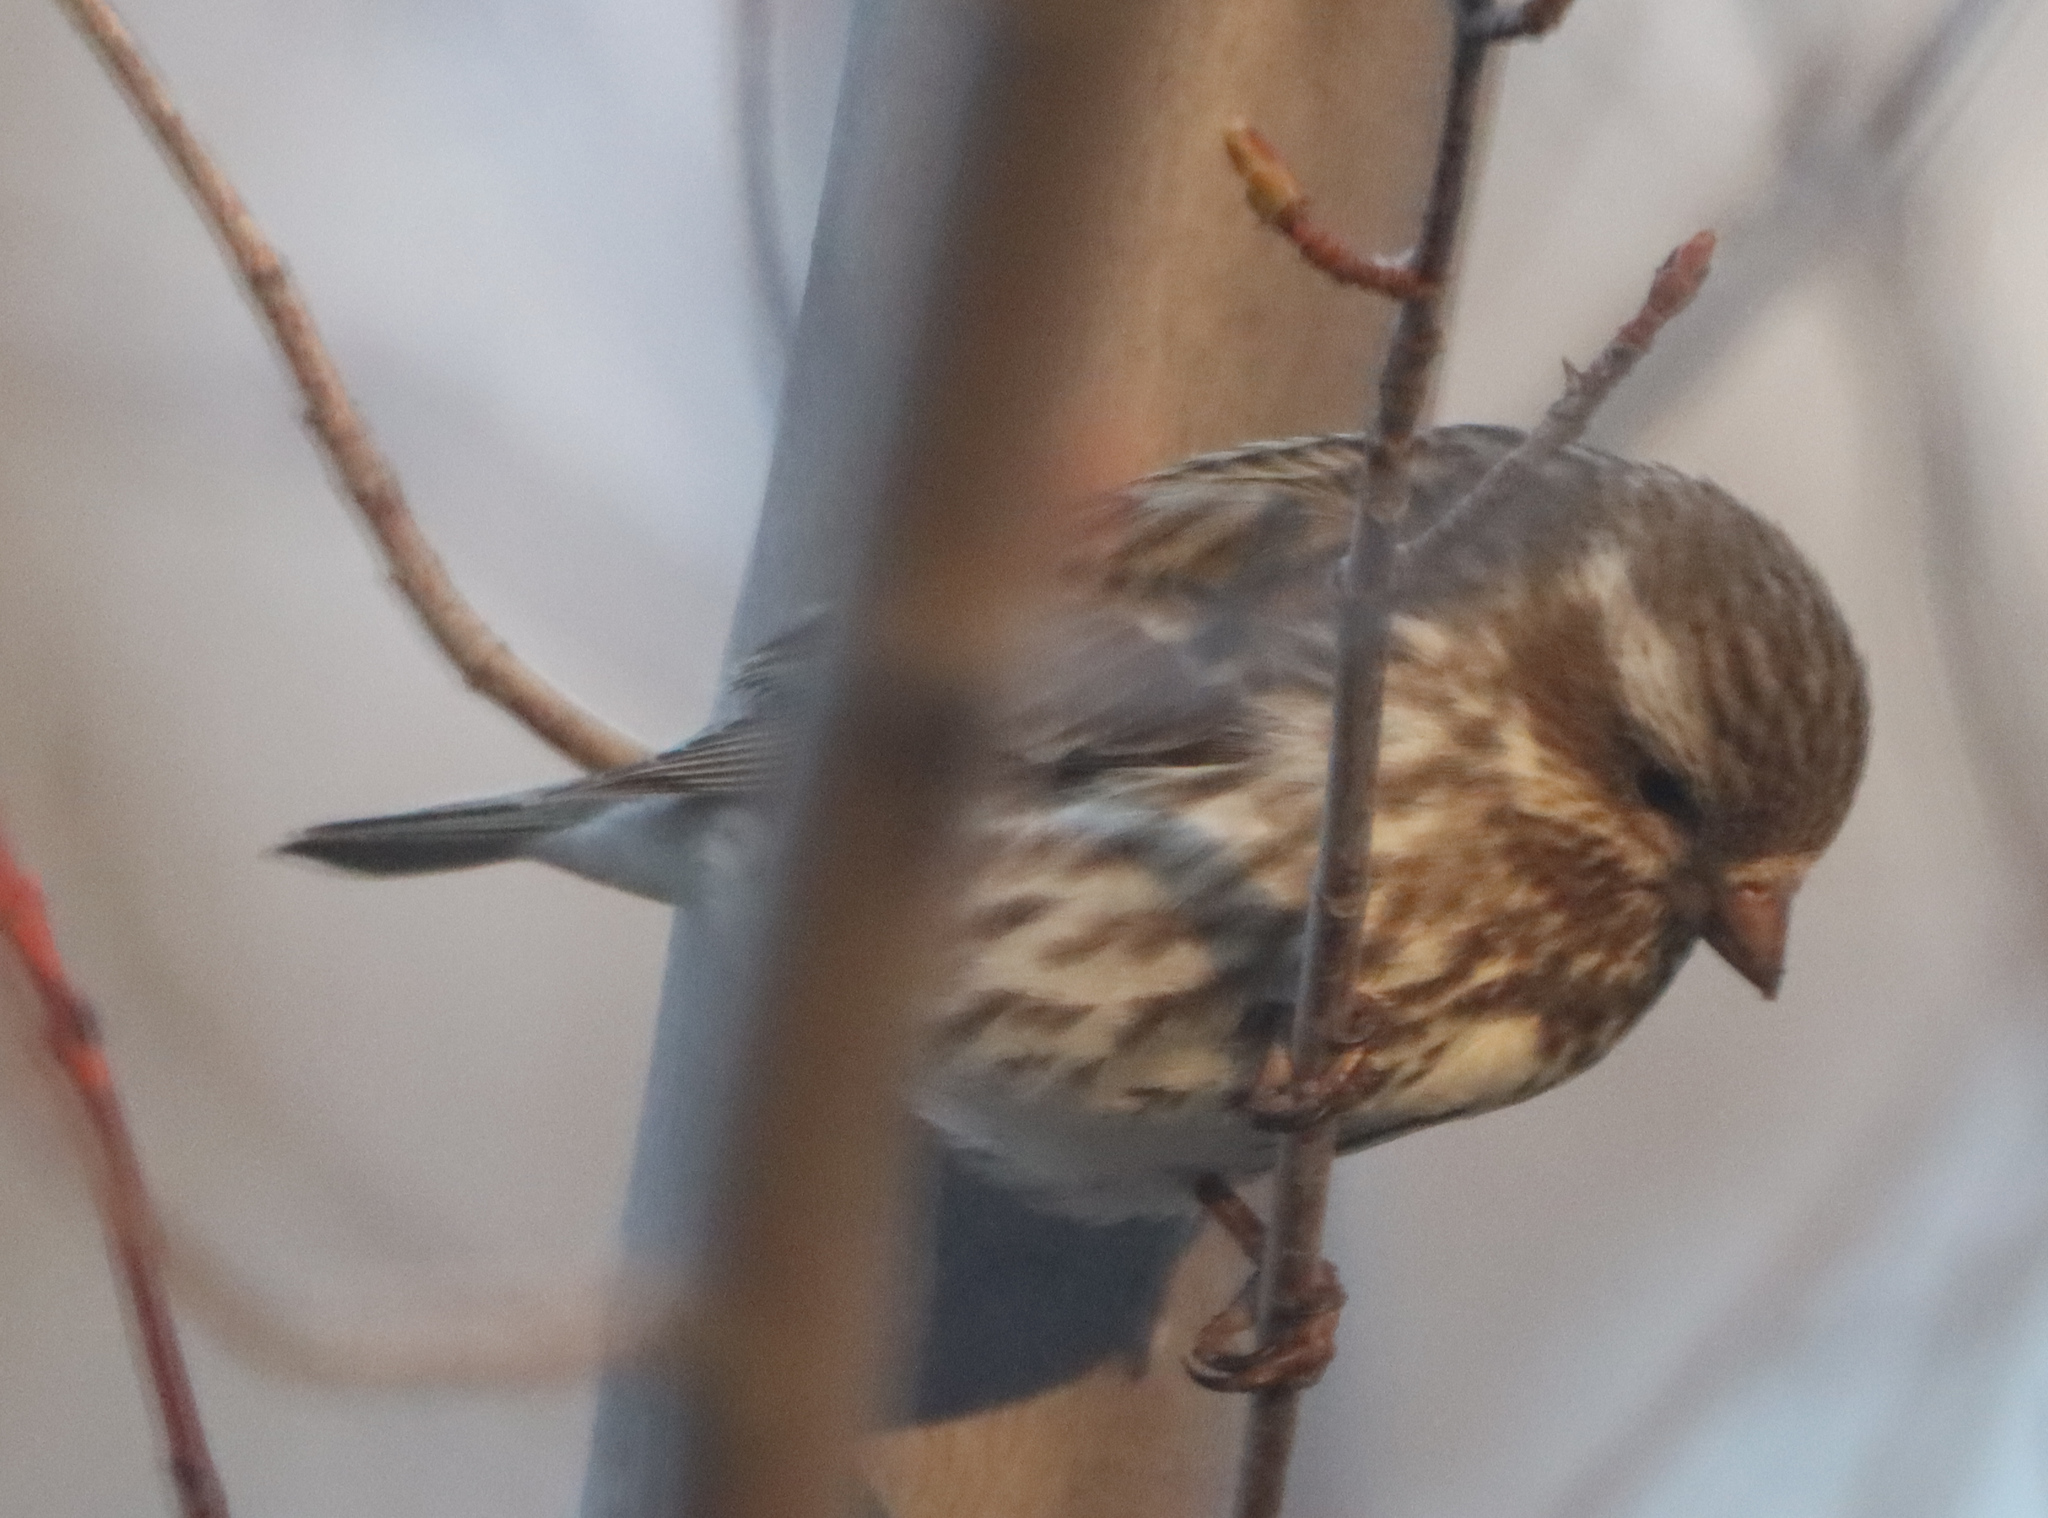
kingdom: Animalia
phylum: Chordata
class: Aves
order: Passeriformes
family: Fringillidae
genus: Haemorhous
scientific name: Haemorhous purpureus
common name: Purple finch
